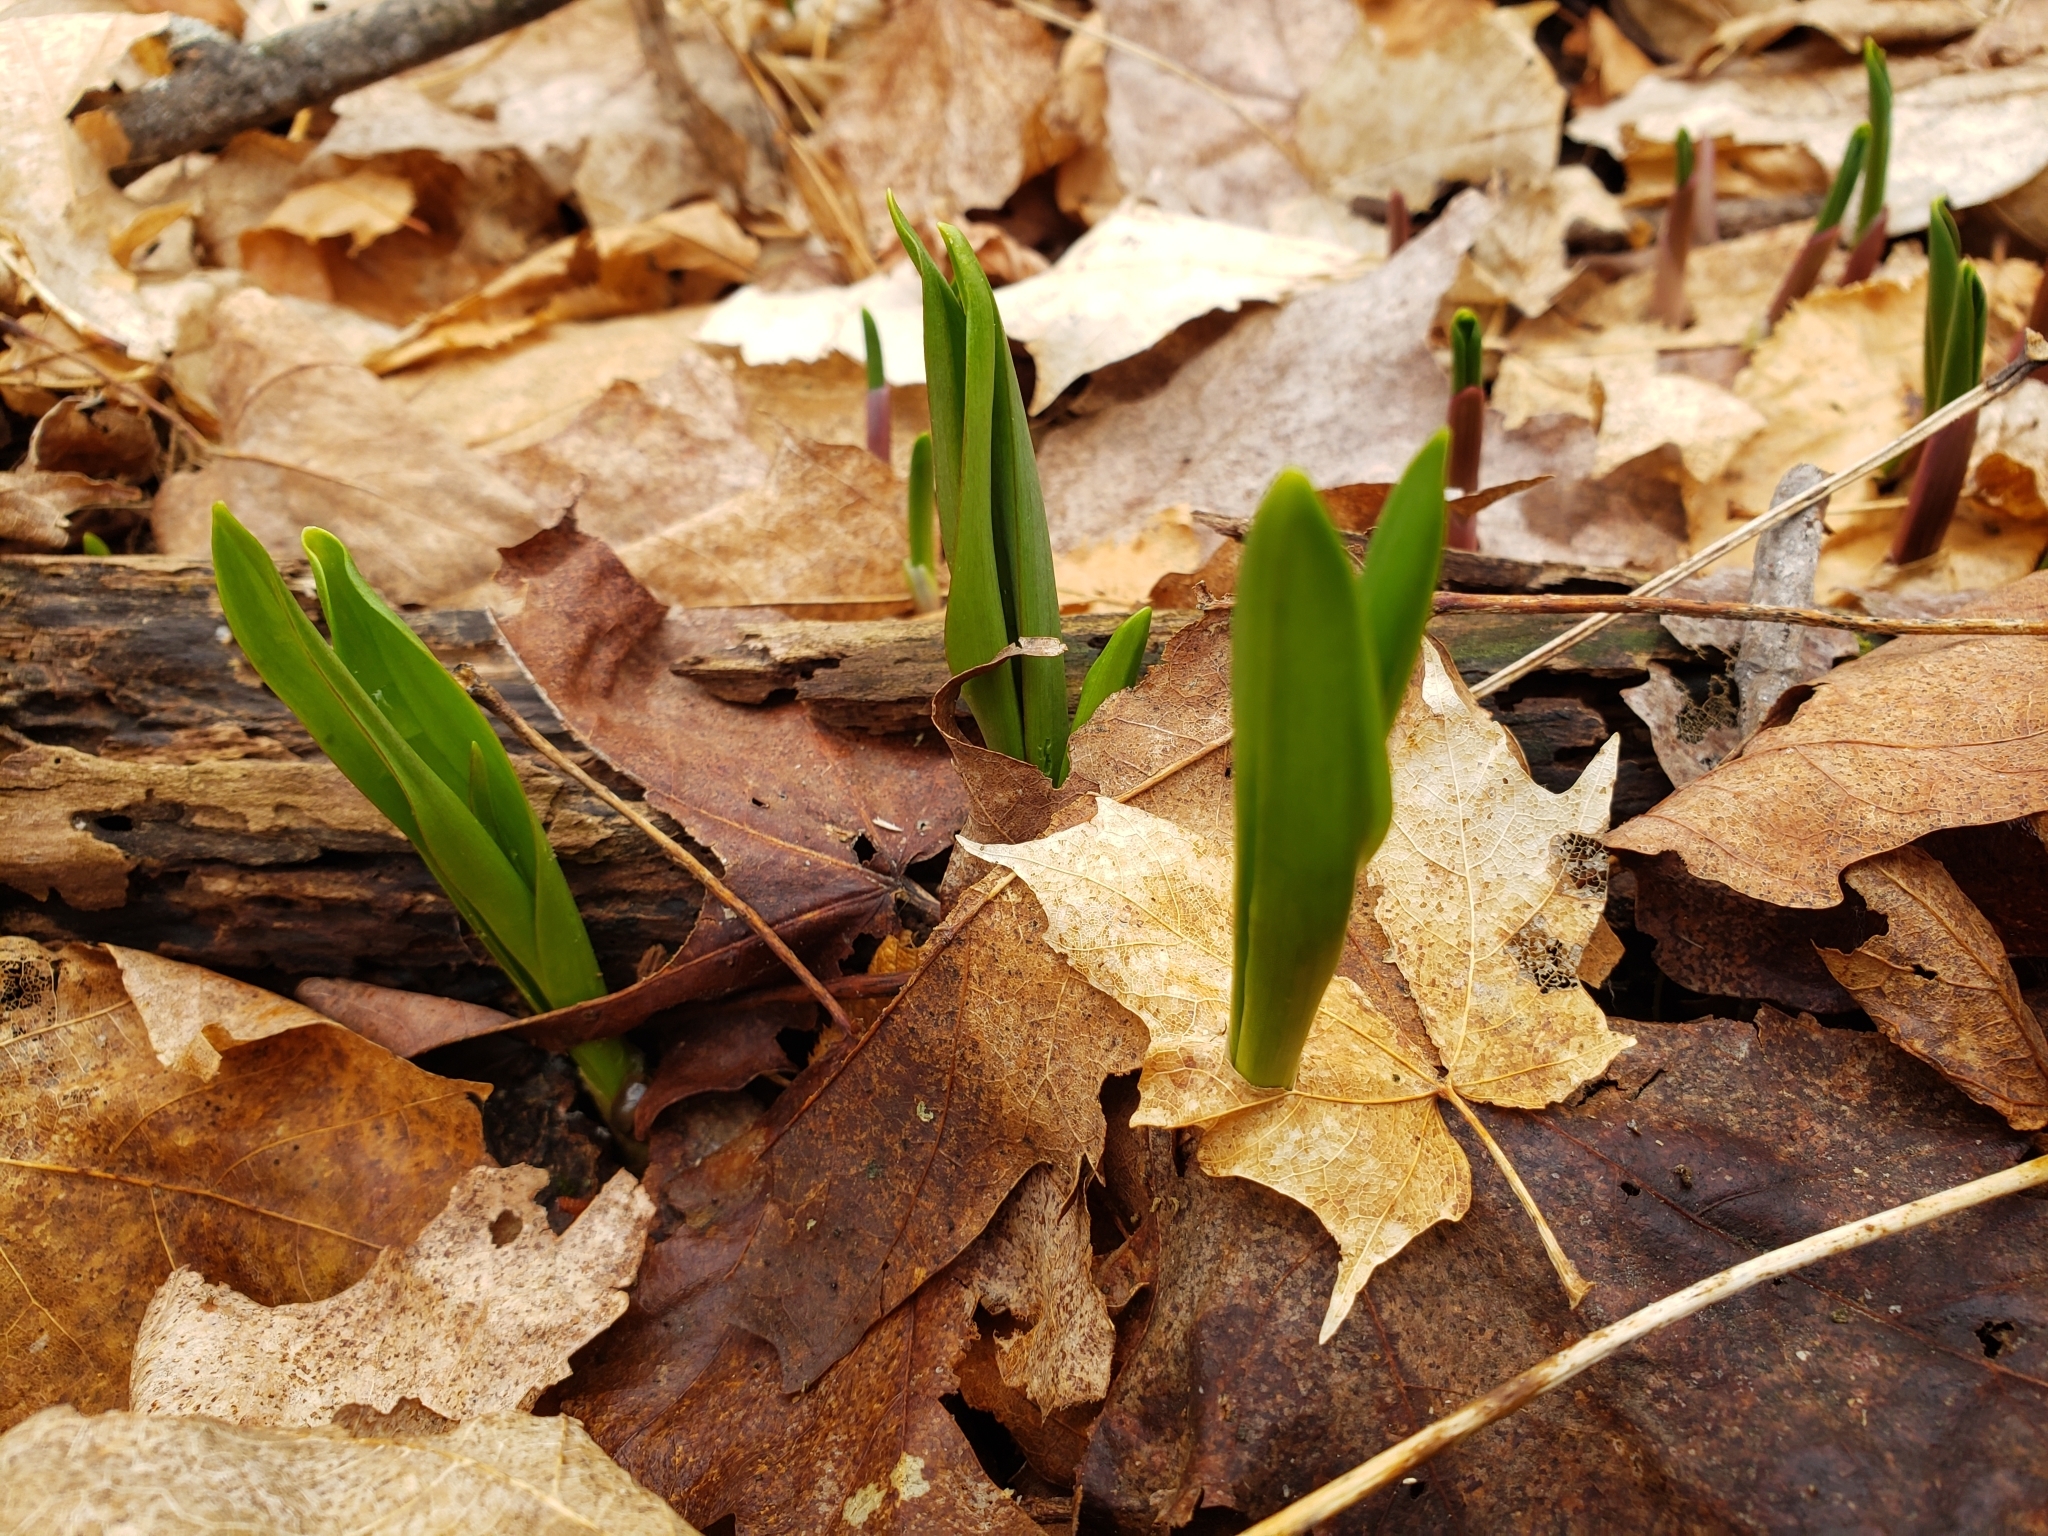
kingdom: Plantae
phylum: Tracheophyta
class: Liliopsida
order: Asparagales
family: Amaryllidaceae
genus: Allium
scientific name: Allium tricoccum
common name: Ramp
